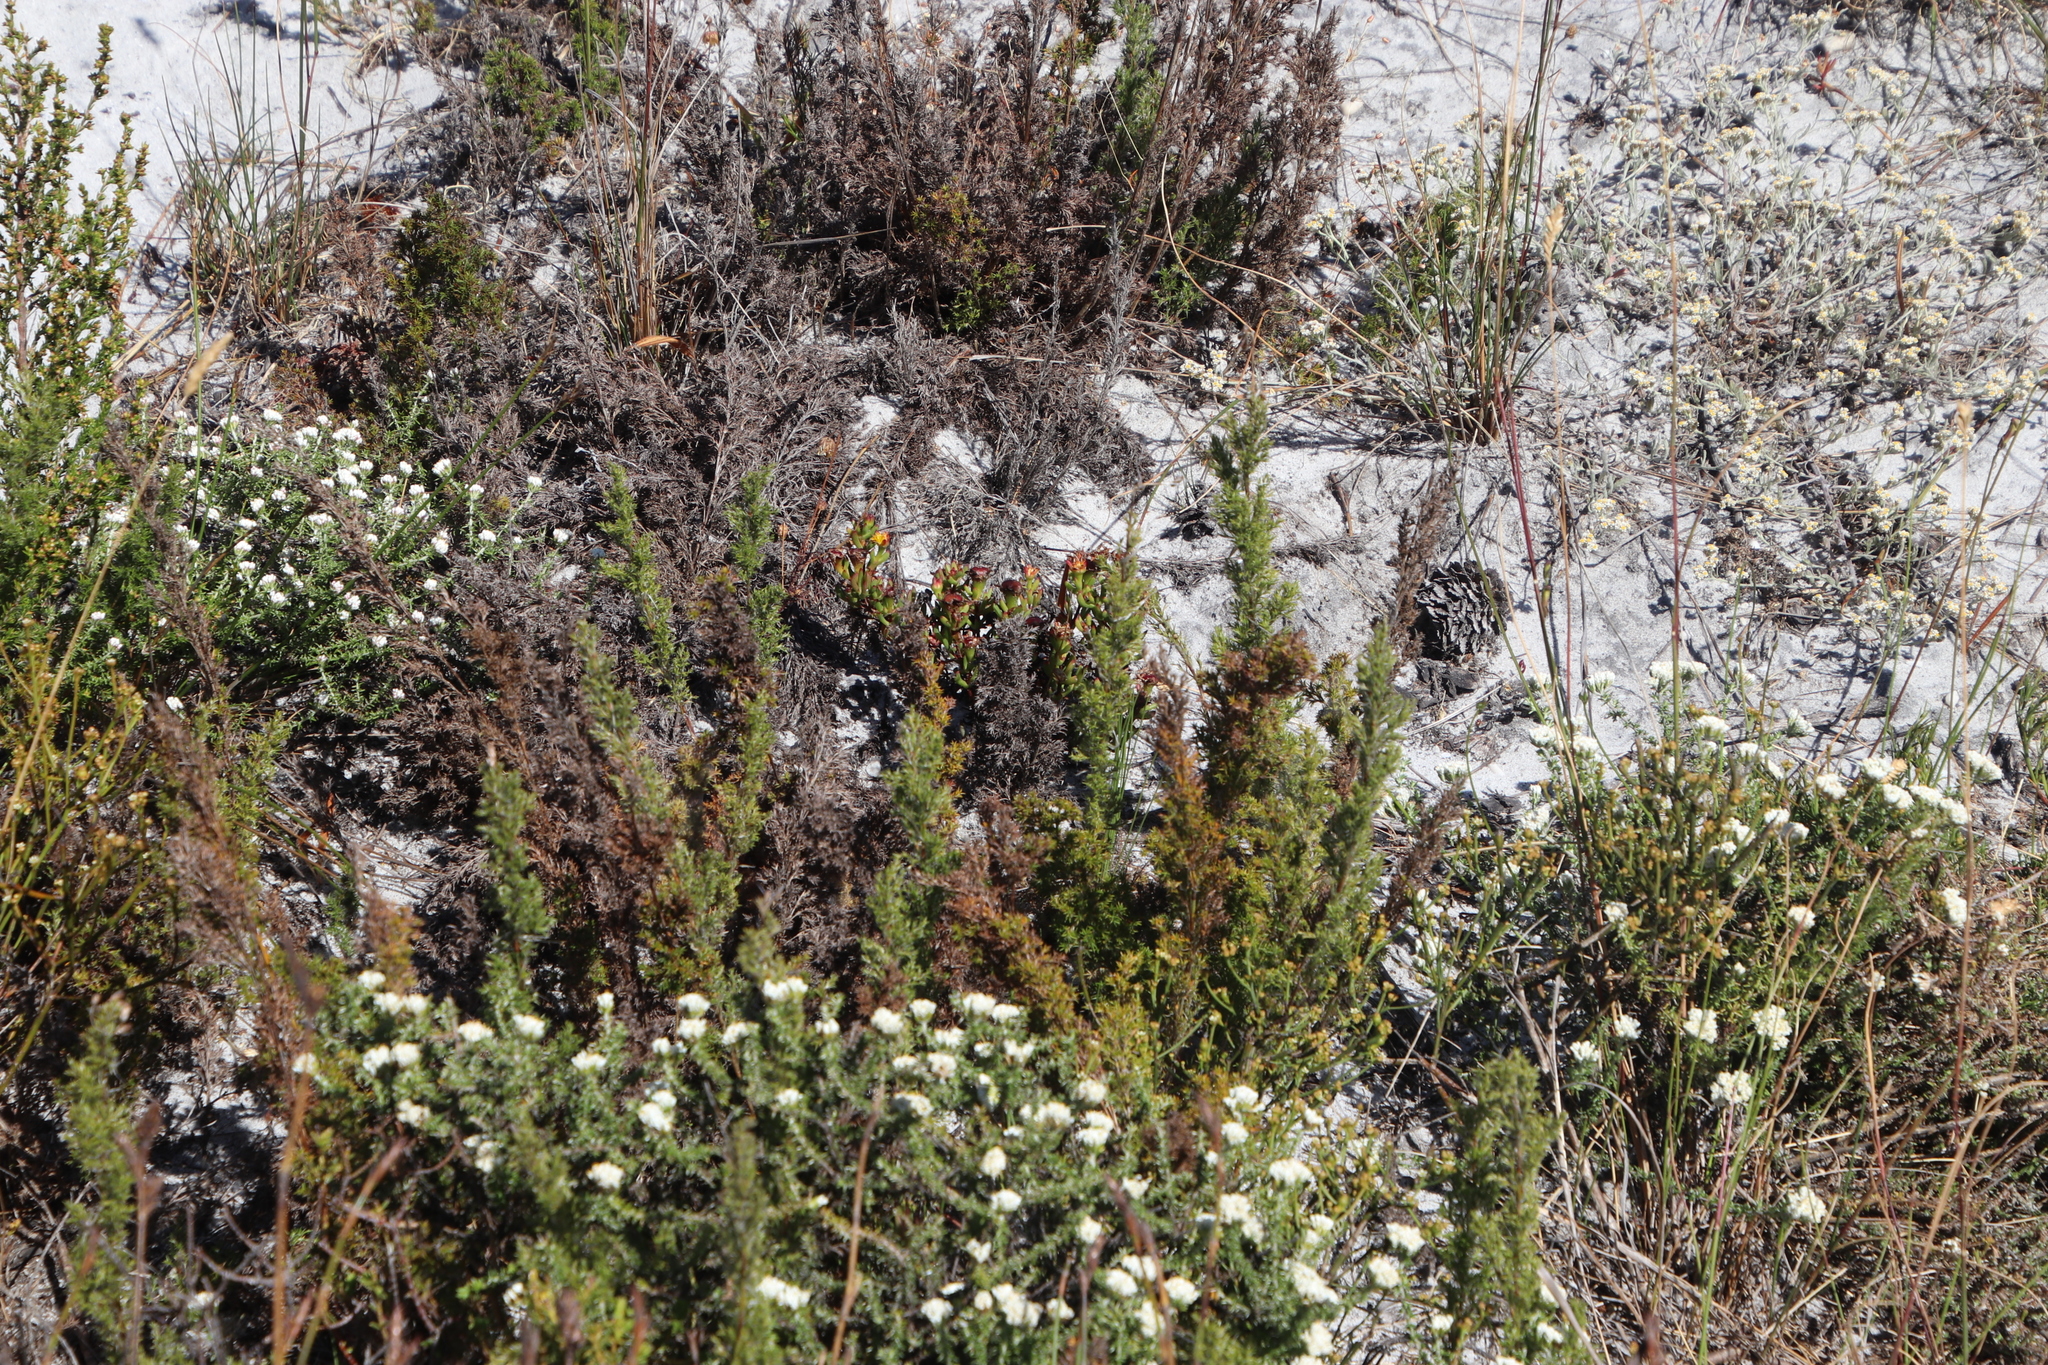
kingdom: Plantae
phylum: Tracheophyta
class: Liliopsida
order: Poales
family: Restionaceae
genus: Thamnochortus
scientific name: Thamnochortus fruticosus
